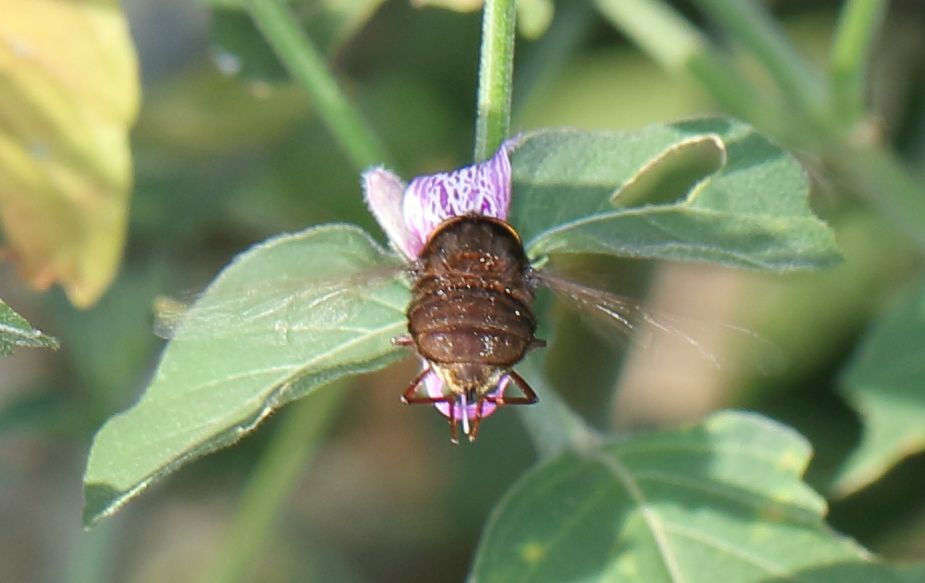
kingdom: Animalia
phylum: Arthropoda
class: Insecta
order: Diptera
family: Nemestrinidae
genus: Prosoeca
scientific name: Prosoeca atra
